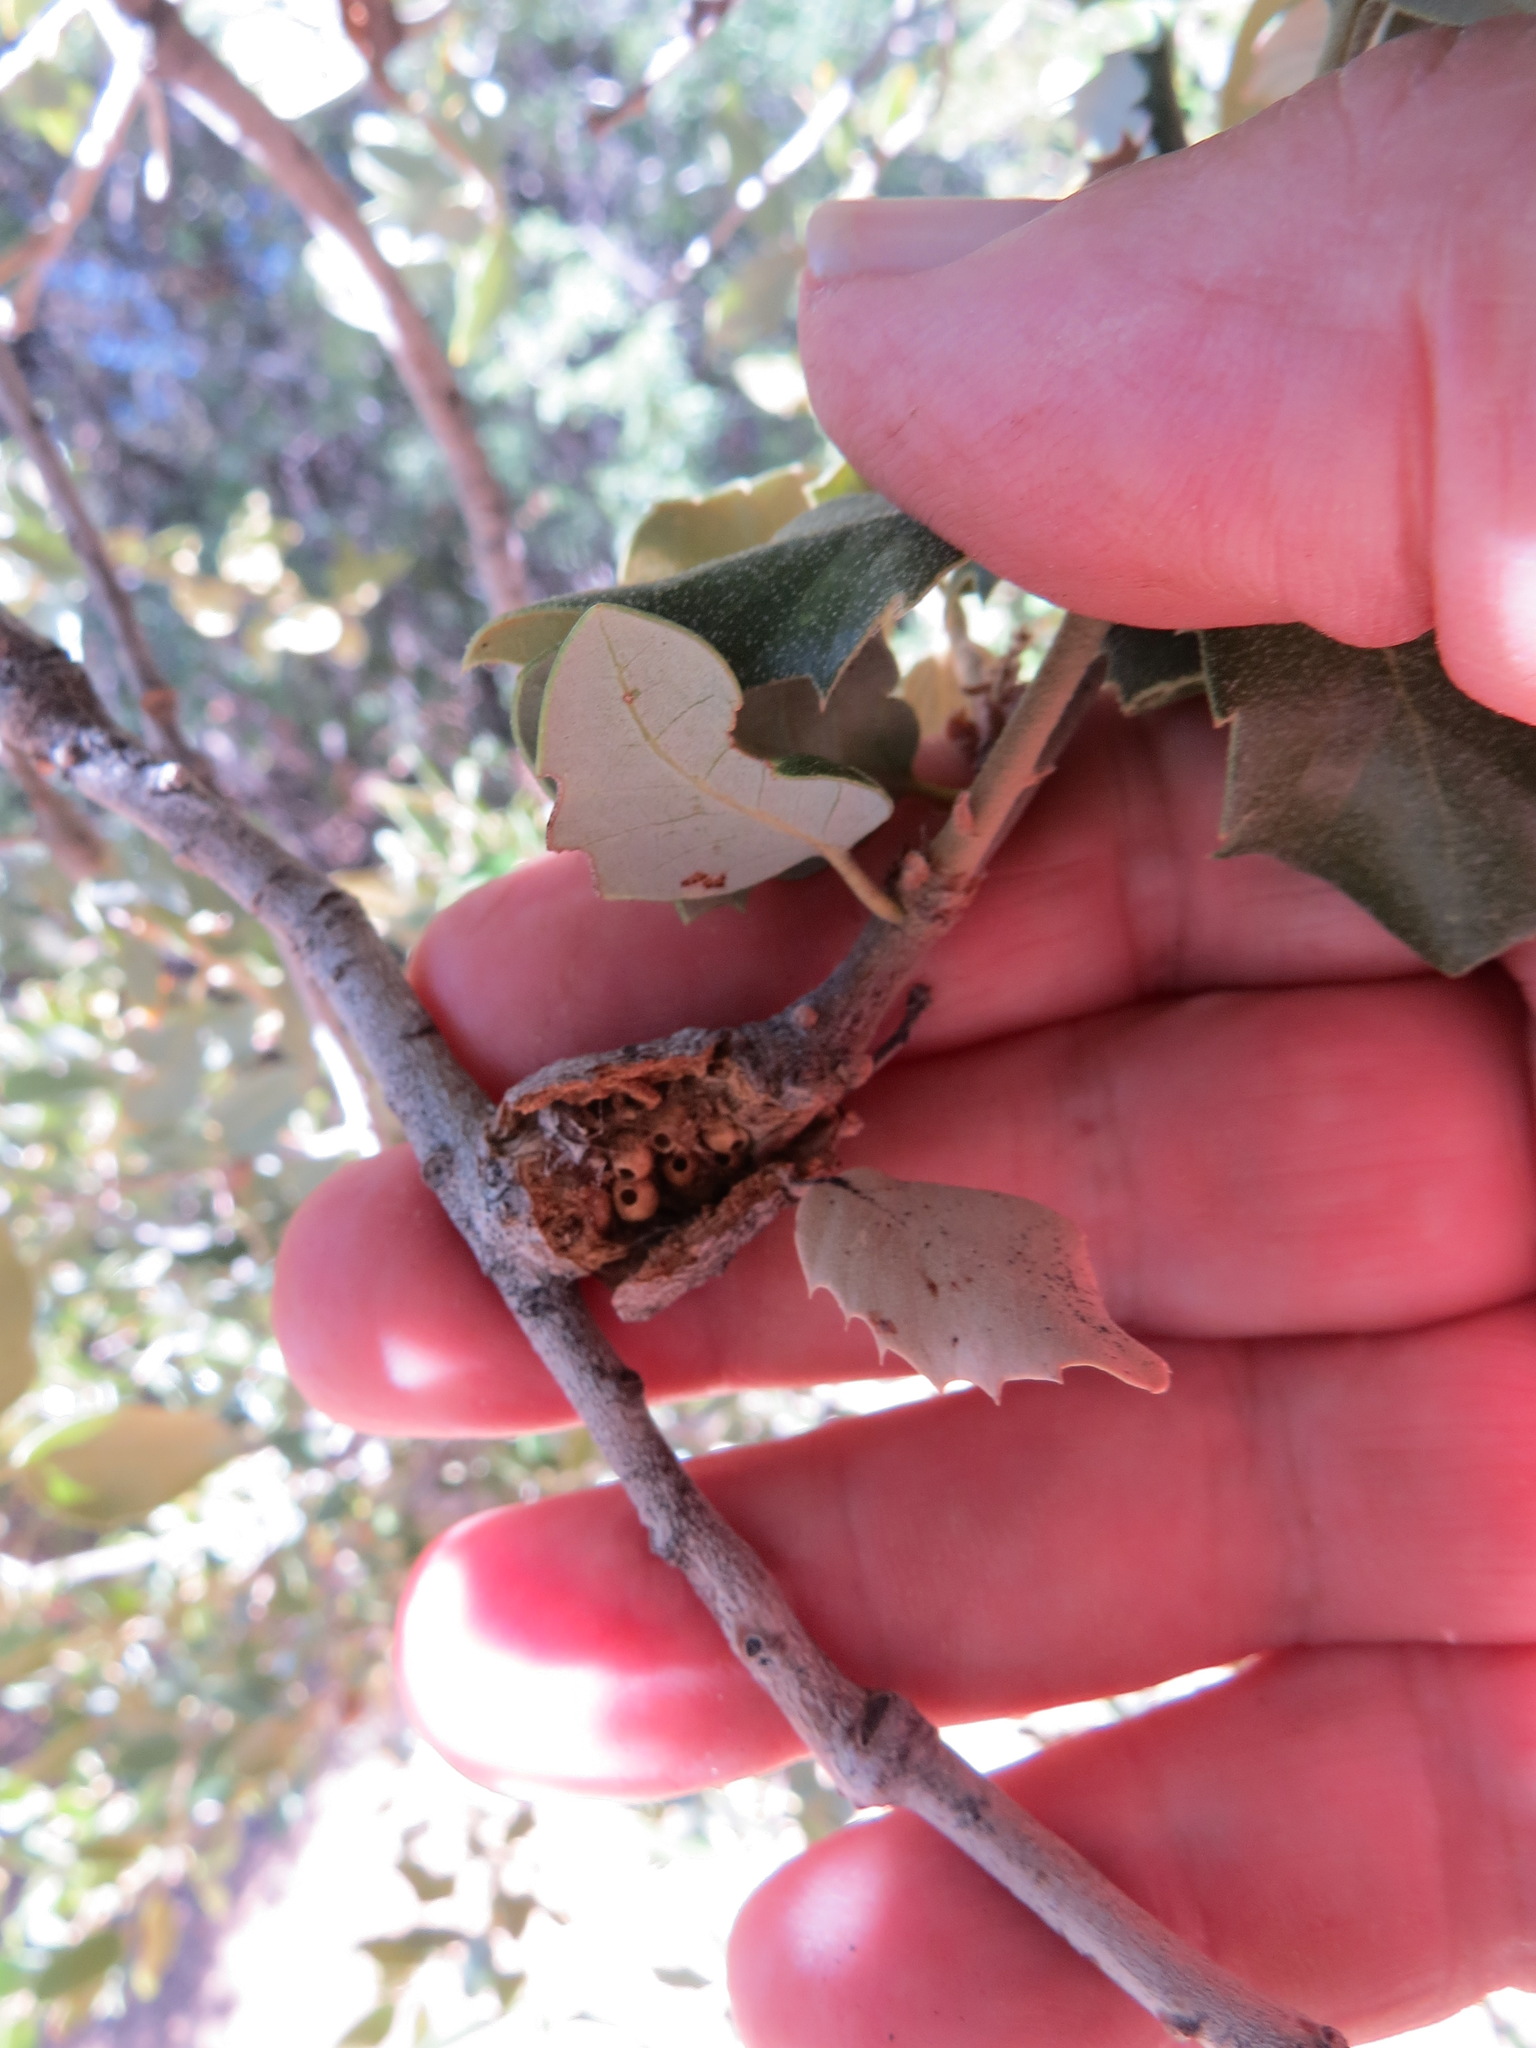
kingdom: Animalia
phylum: Arthropoda
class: Insecta
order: Hymenoptera
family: Cynipidae
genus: Dryocosmus
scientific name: Dryocosmus
